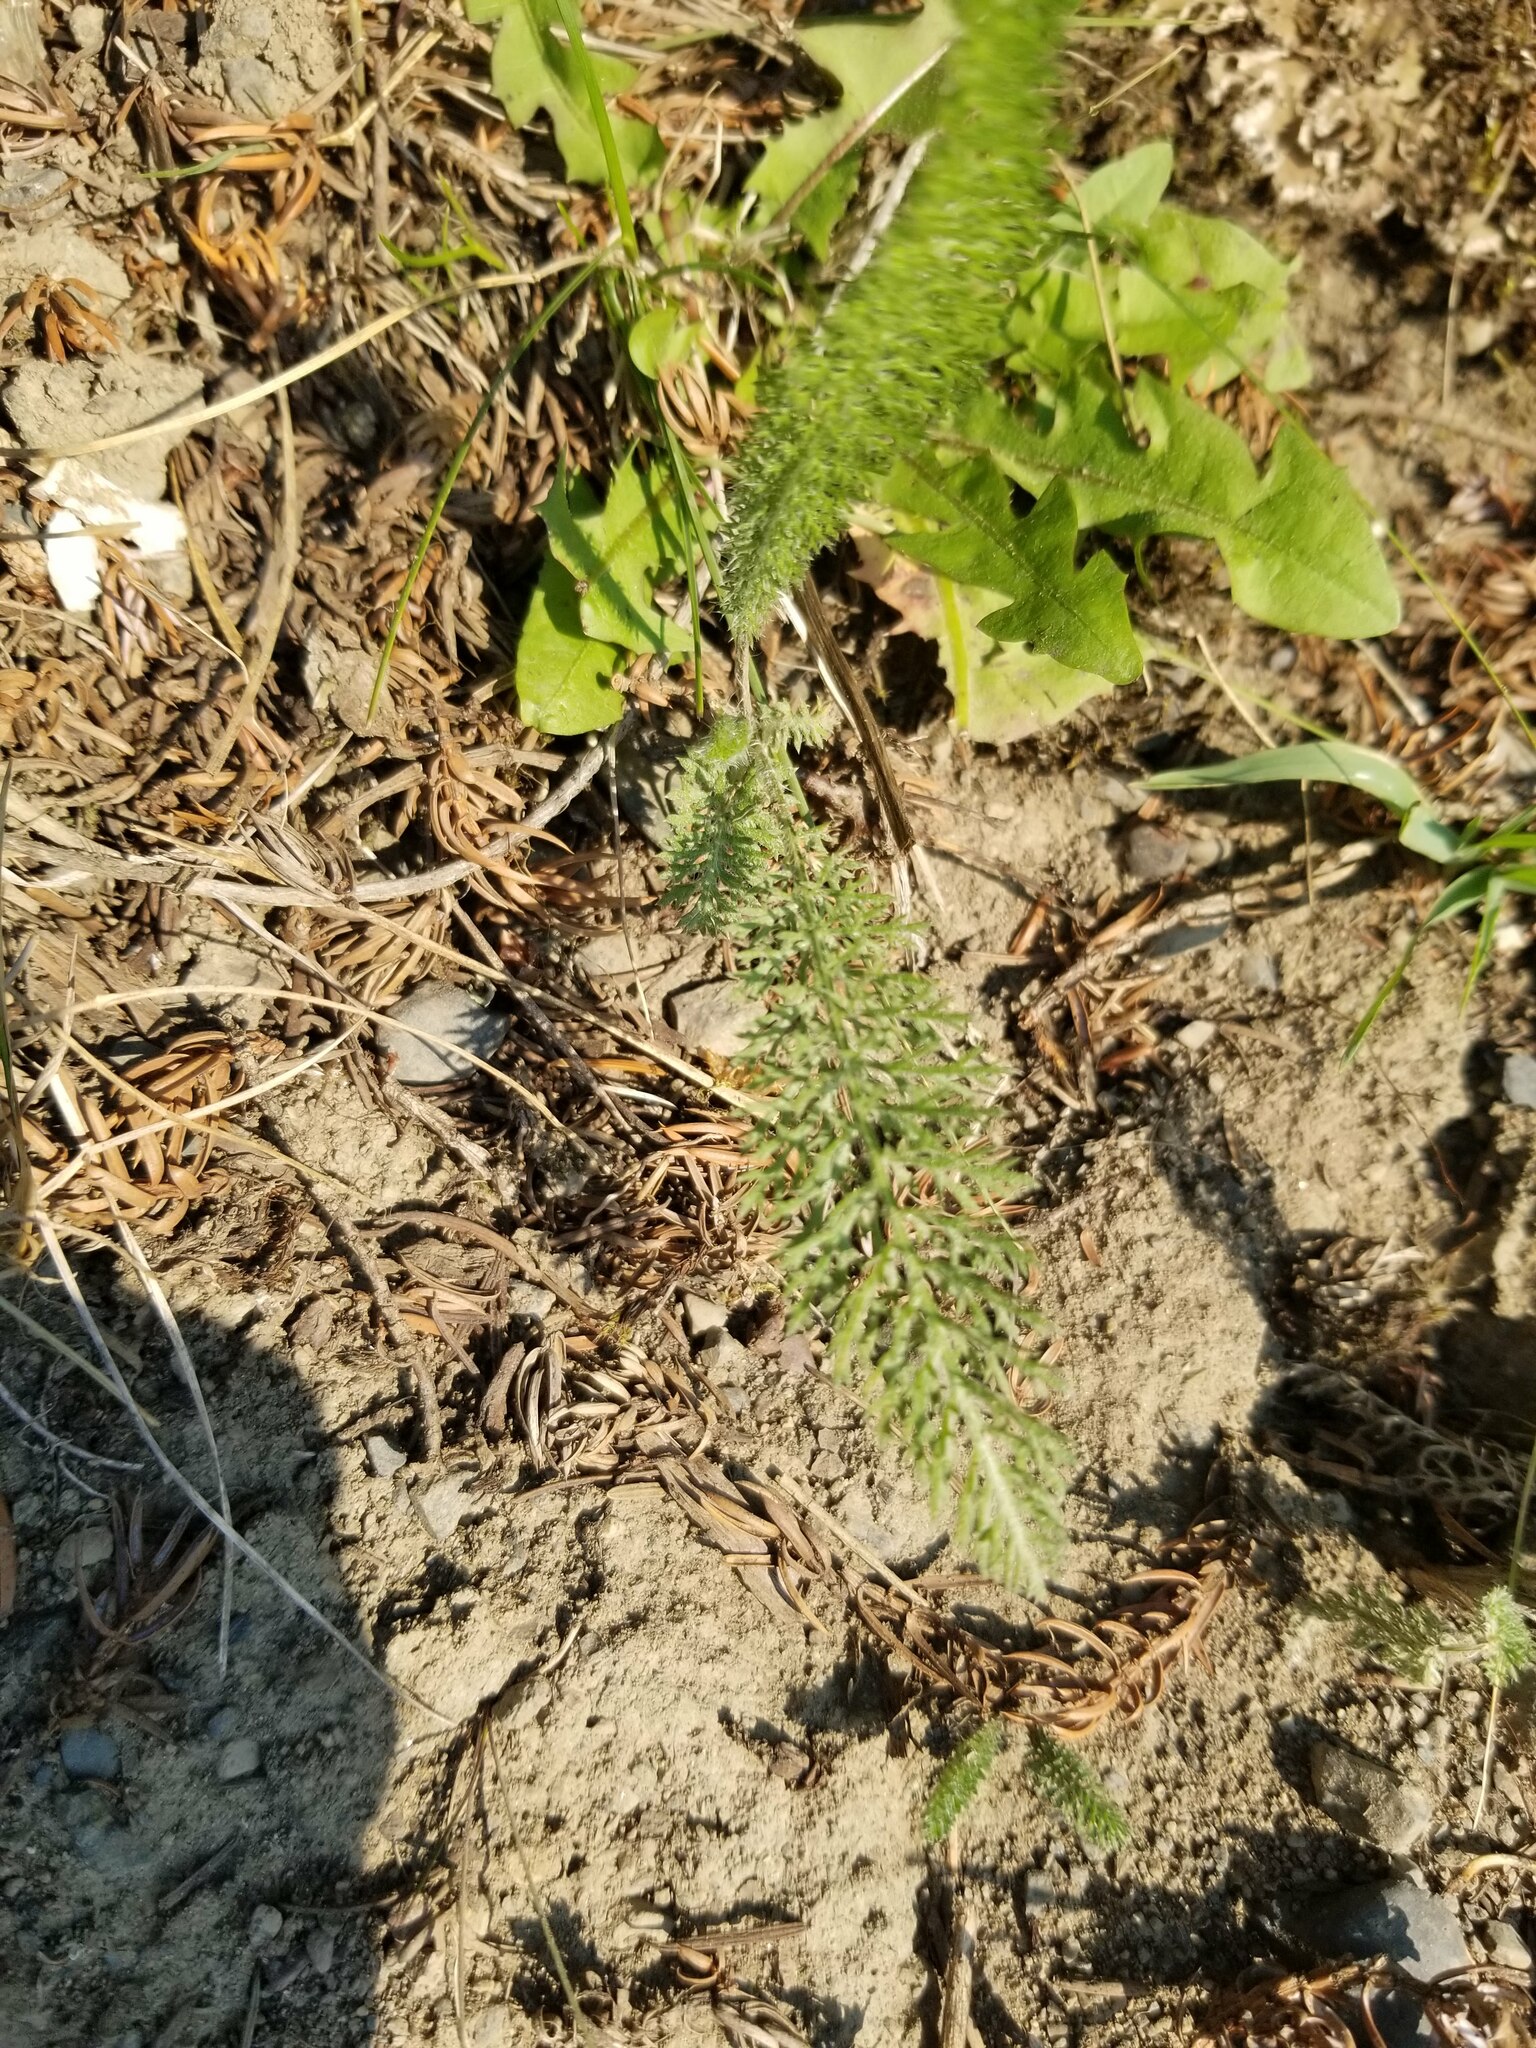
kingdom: Plantae
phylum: Tracheophyta
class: Magnoliopsida
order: Asterales
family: Asteraceae
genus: Achillea
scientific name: Achillea millefolium
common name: Yarrow
